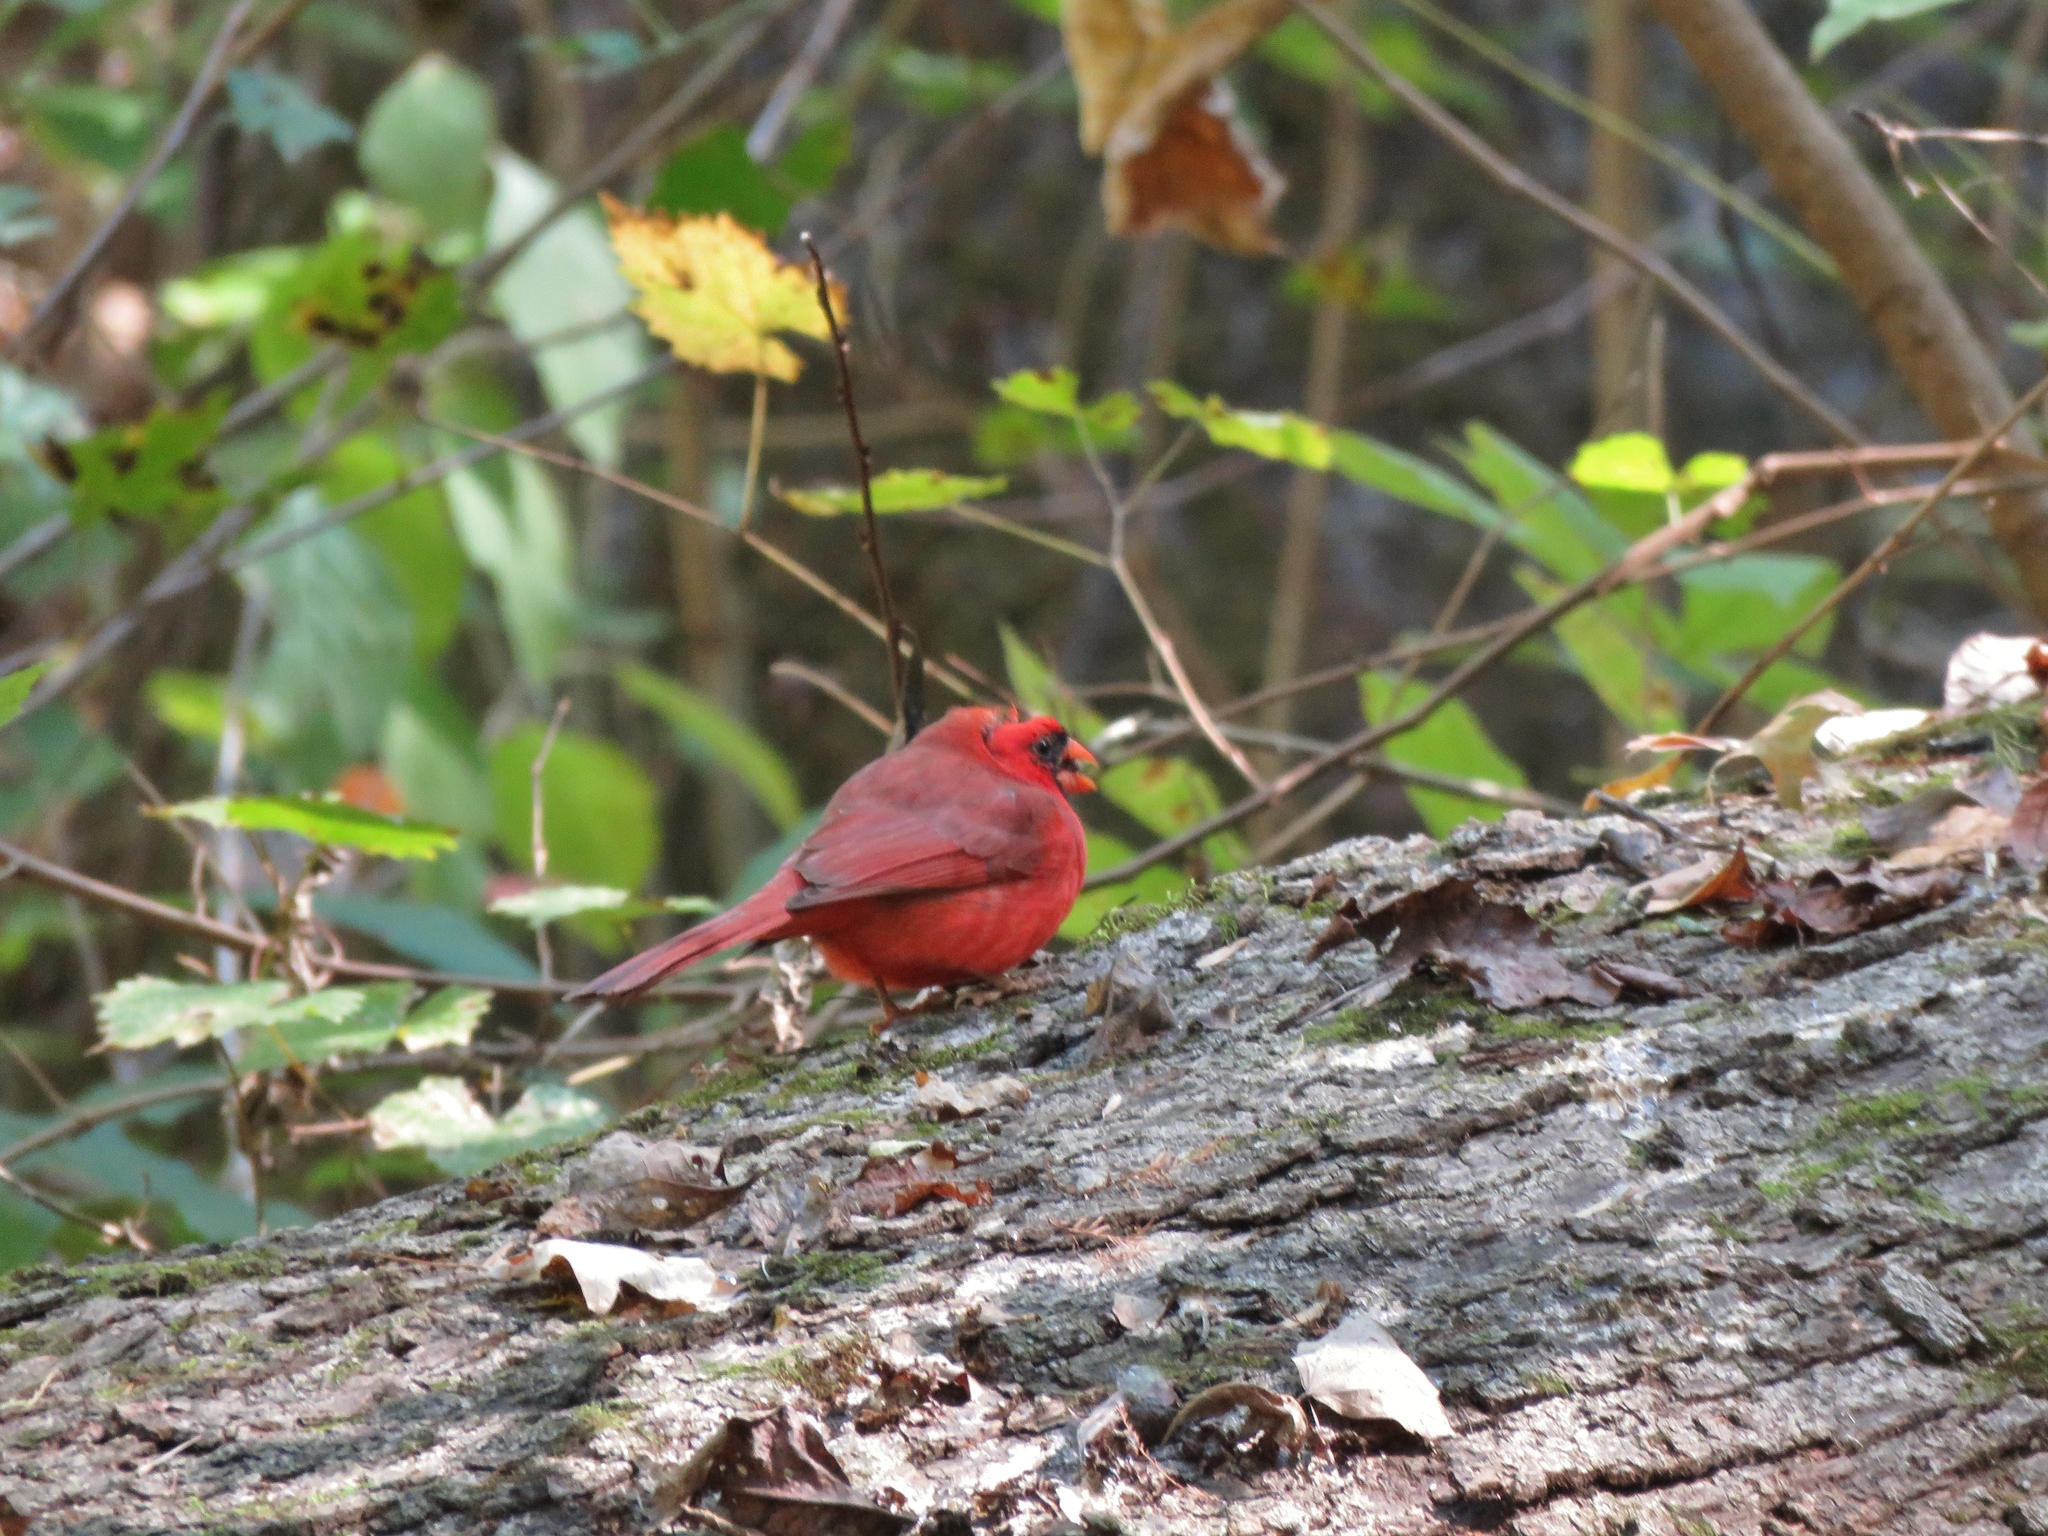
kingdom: Animalia
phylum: Chordata
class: Aves
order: Passeriformes
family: Cardinalidae
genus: Cardinalis
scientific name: Cardinalis cardinalis
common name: Northern cardinal
